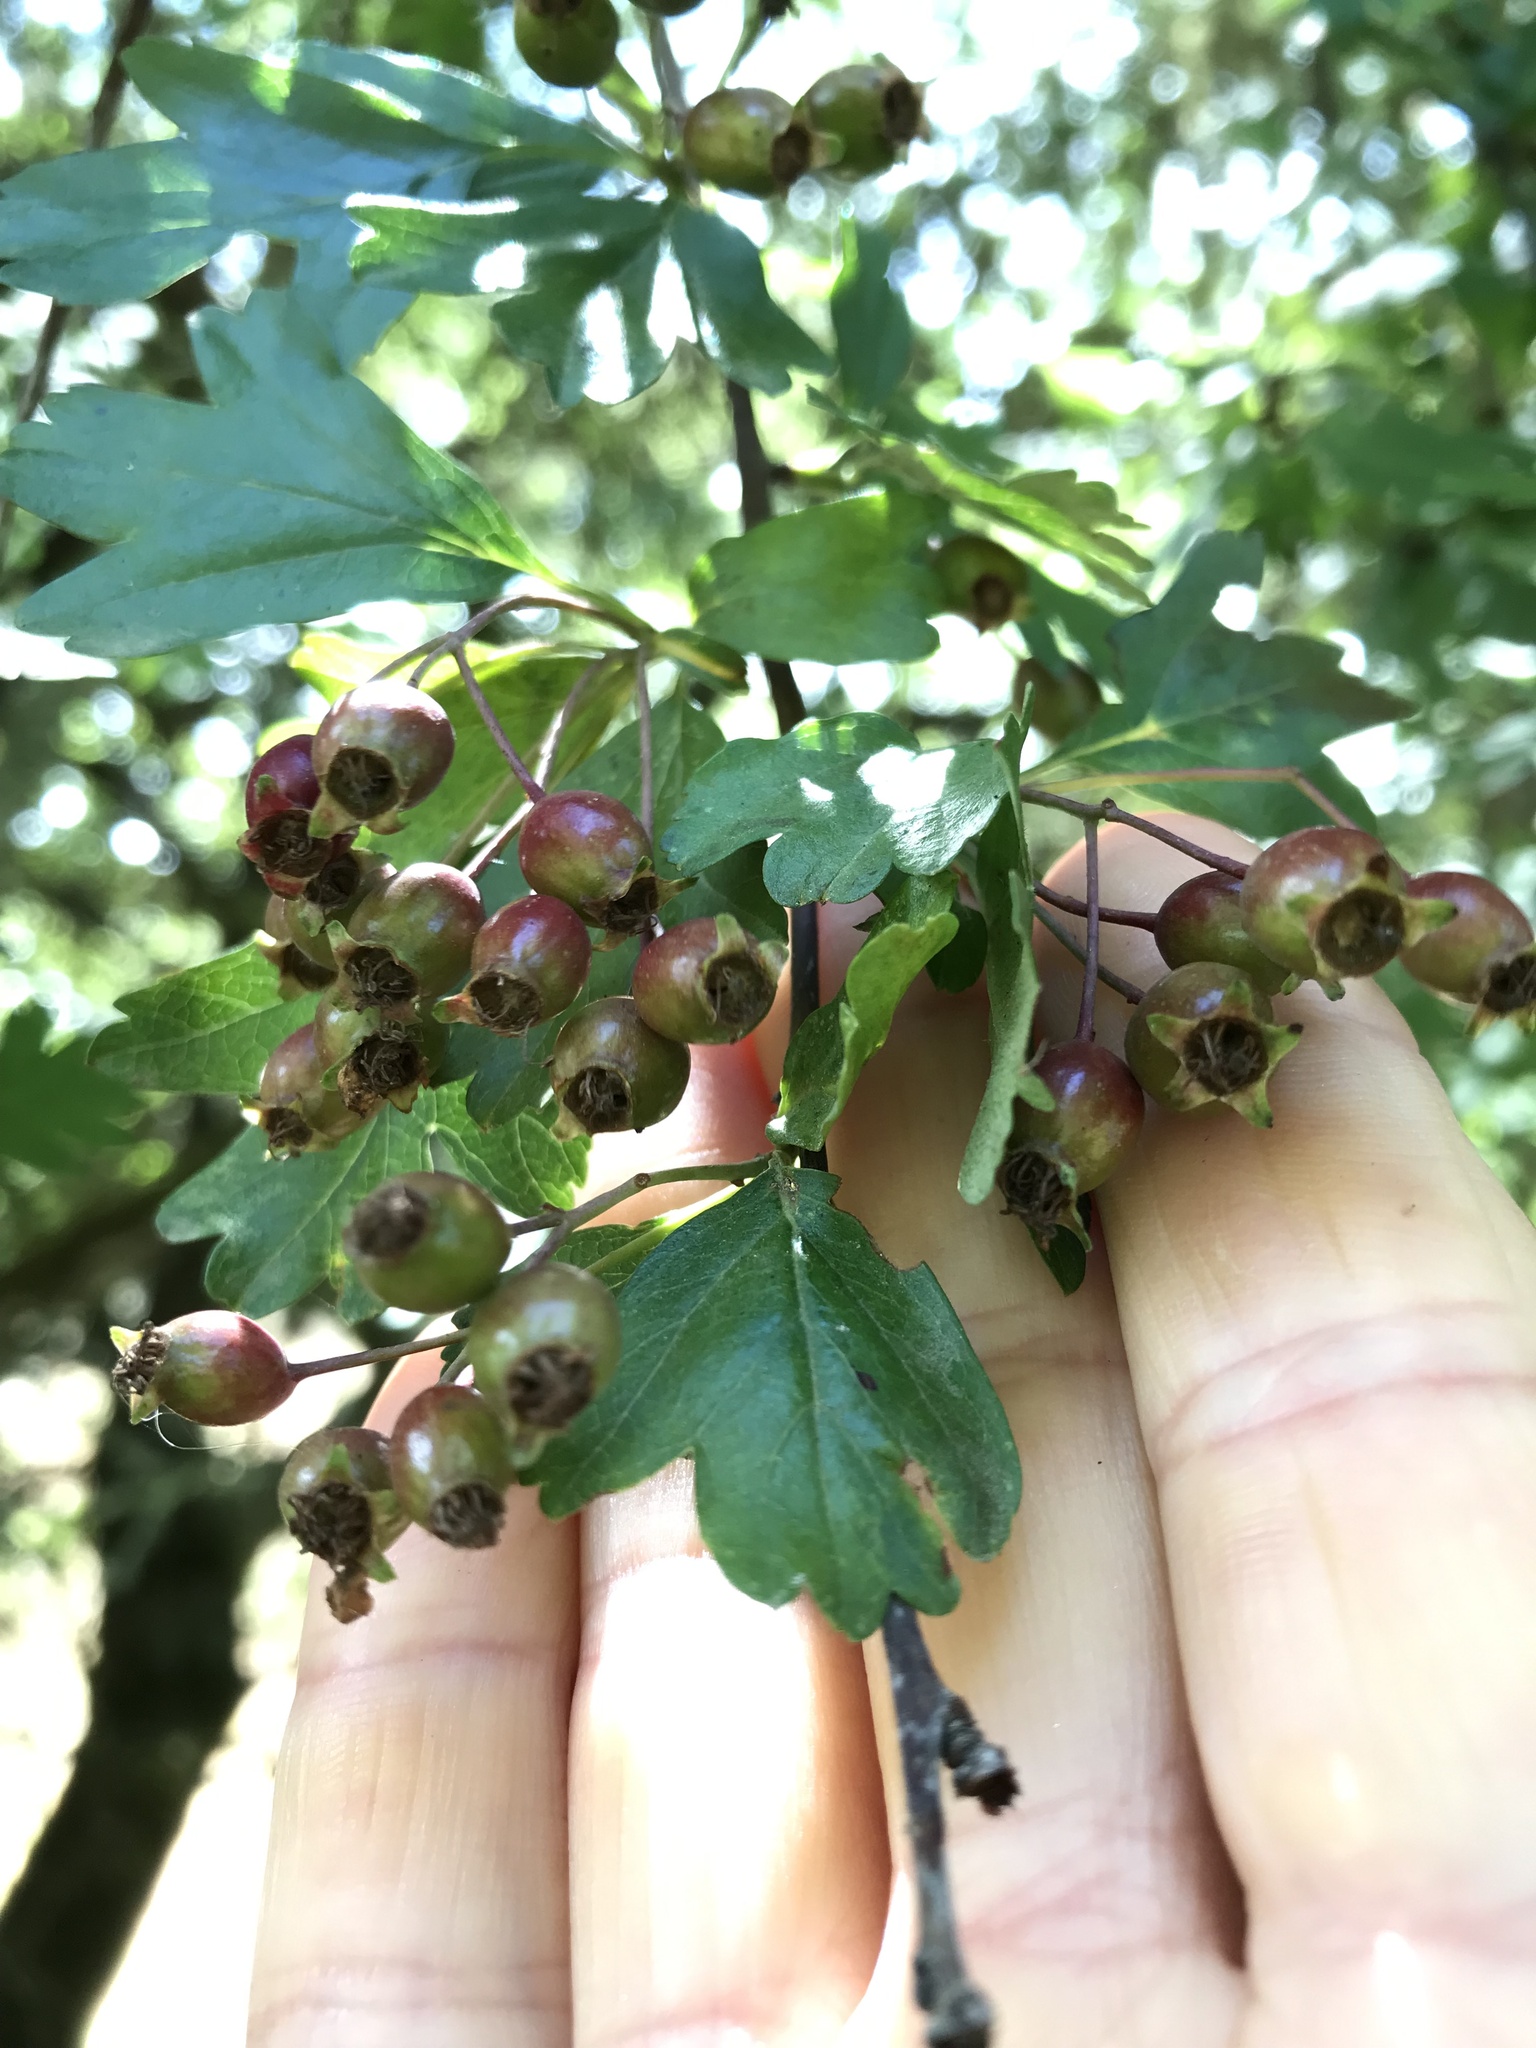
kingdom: Plantae
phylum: Tracheophyta
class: Magnoliopsida
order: Rosales
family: Rosaceae
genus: Crataegus
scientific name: Crataegus monogyna
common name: Hawthorn
